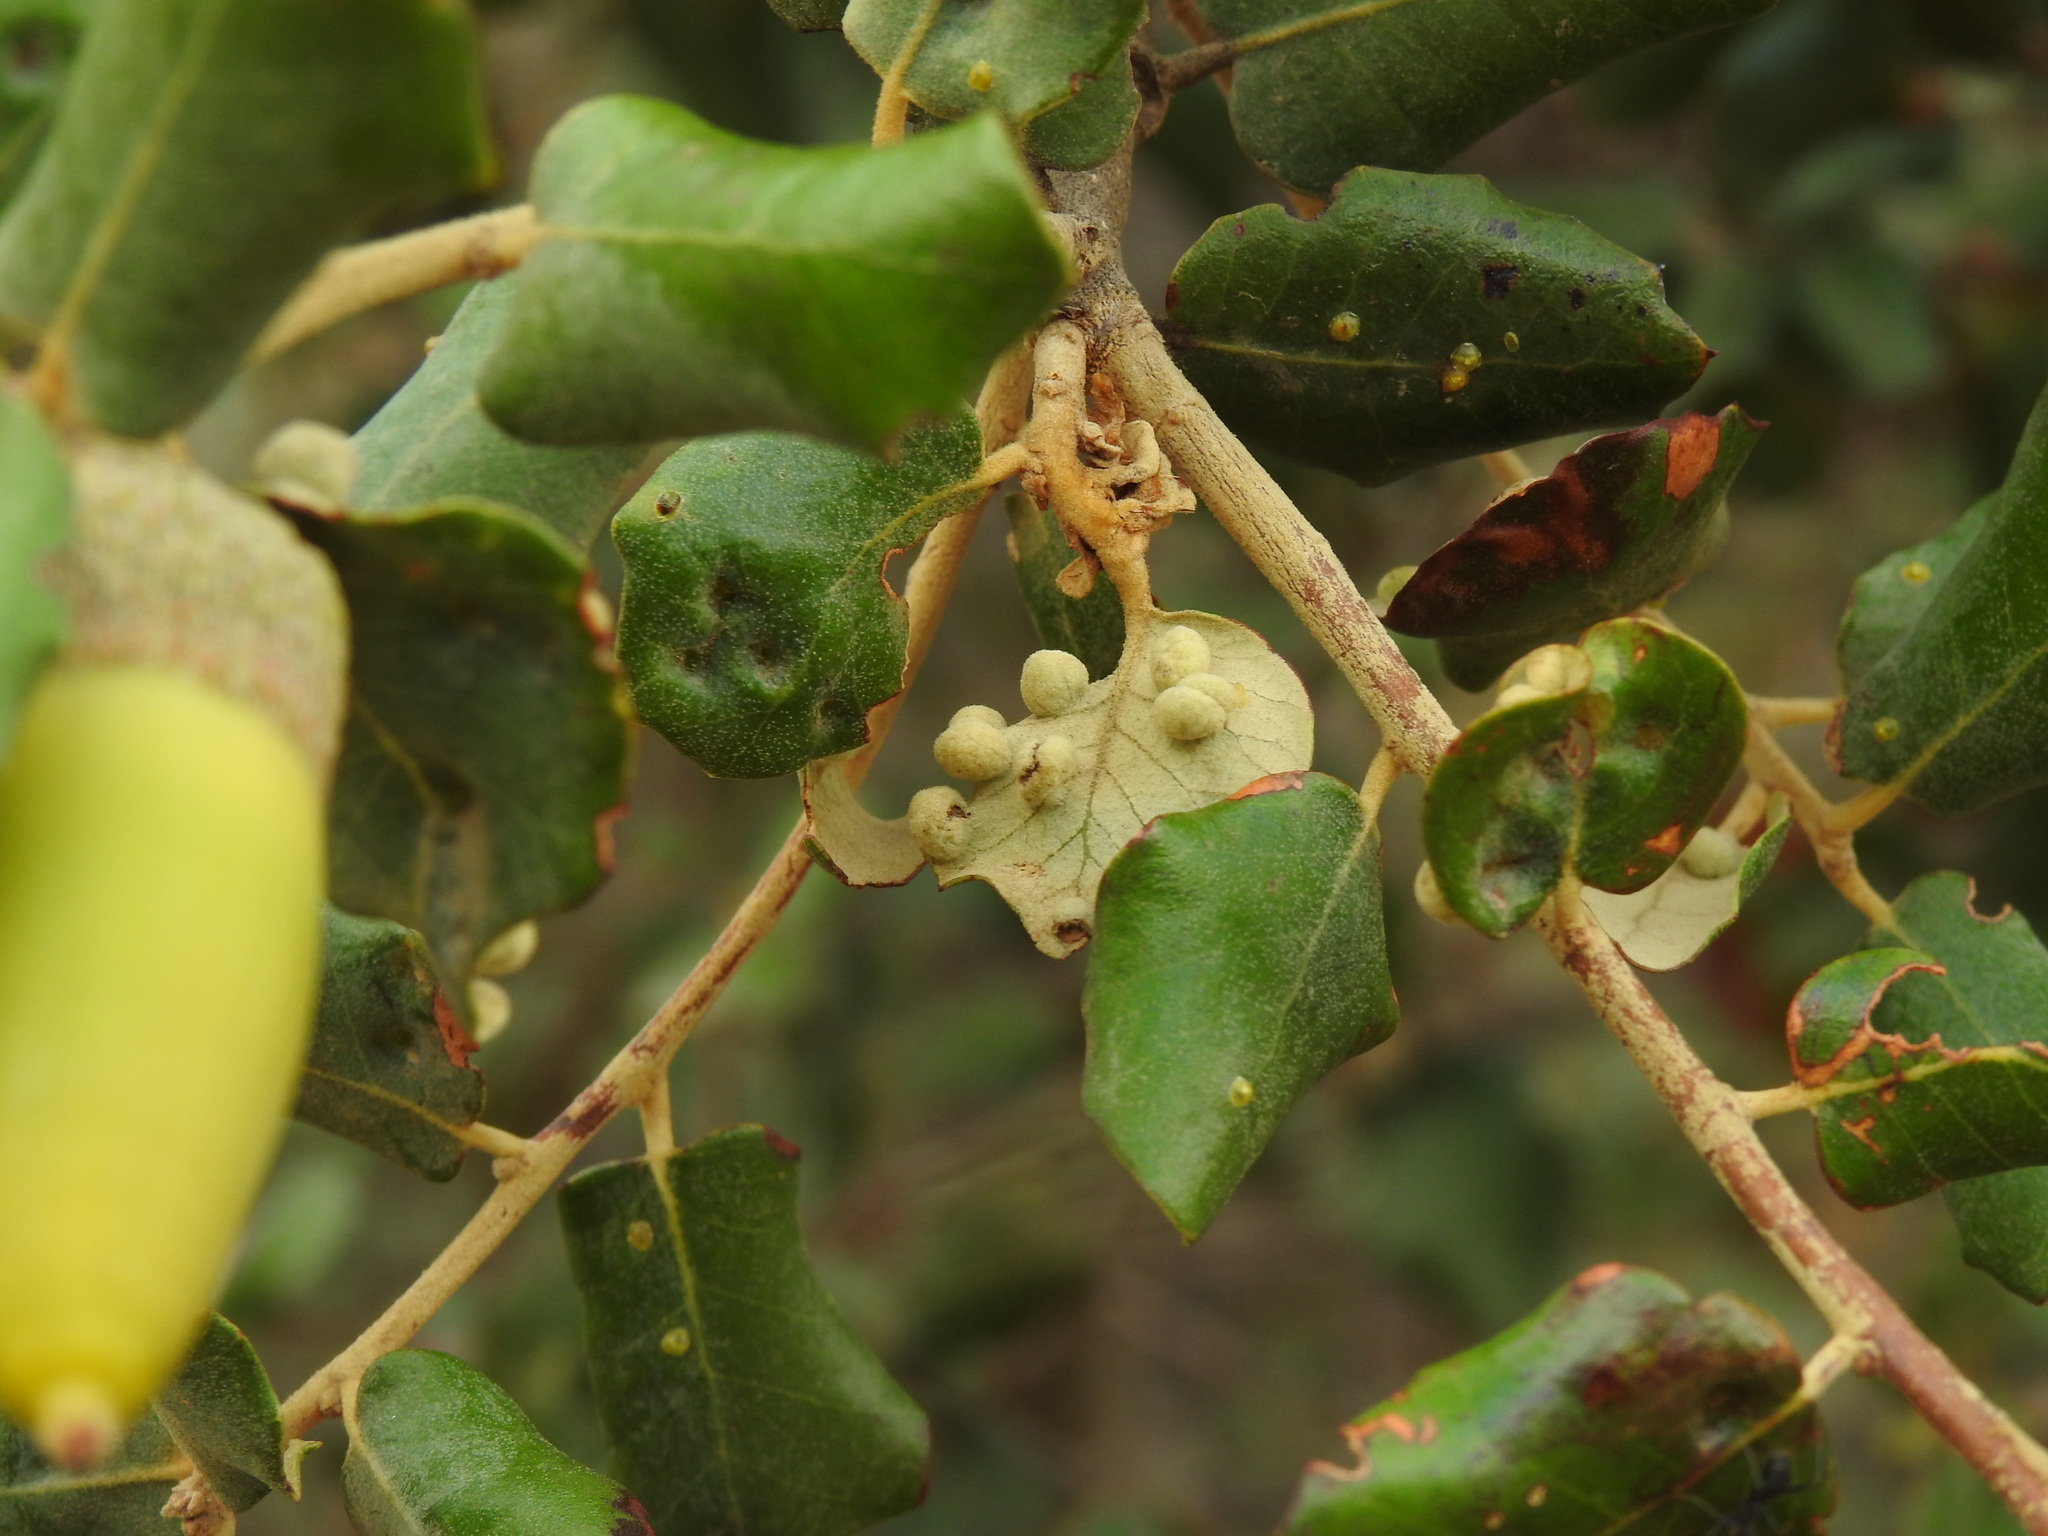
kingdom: Animalia
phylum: Arthropoda
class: Insecta
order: Diptera
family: Cecidomyiidae
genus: Dryomyia
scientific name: Dryomyia lichtensteinii
